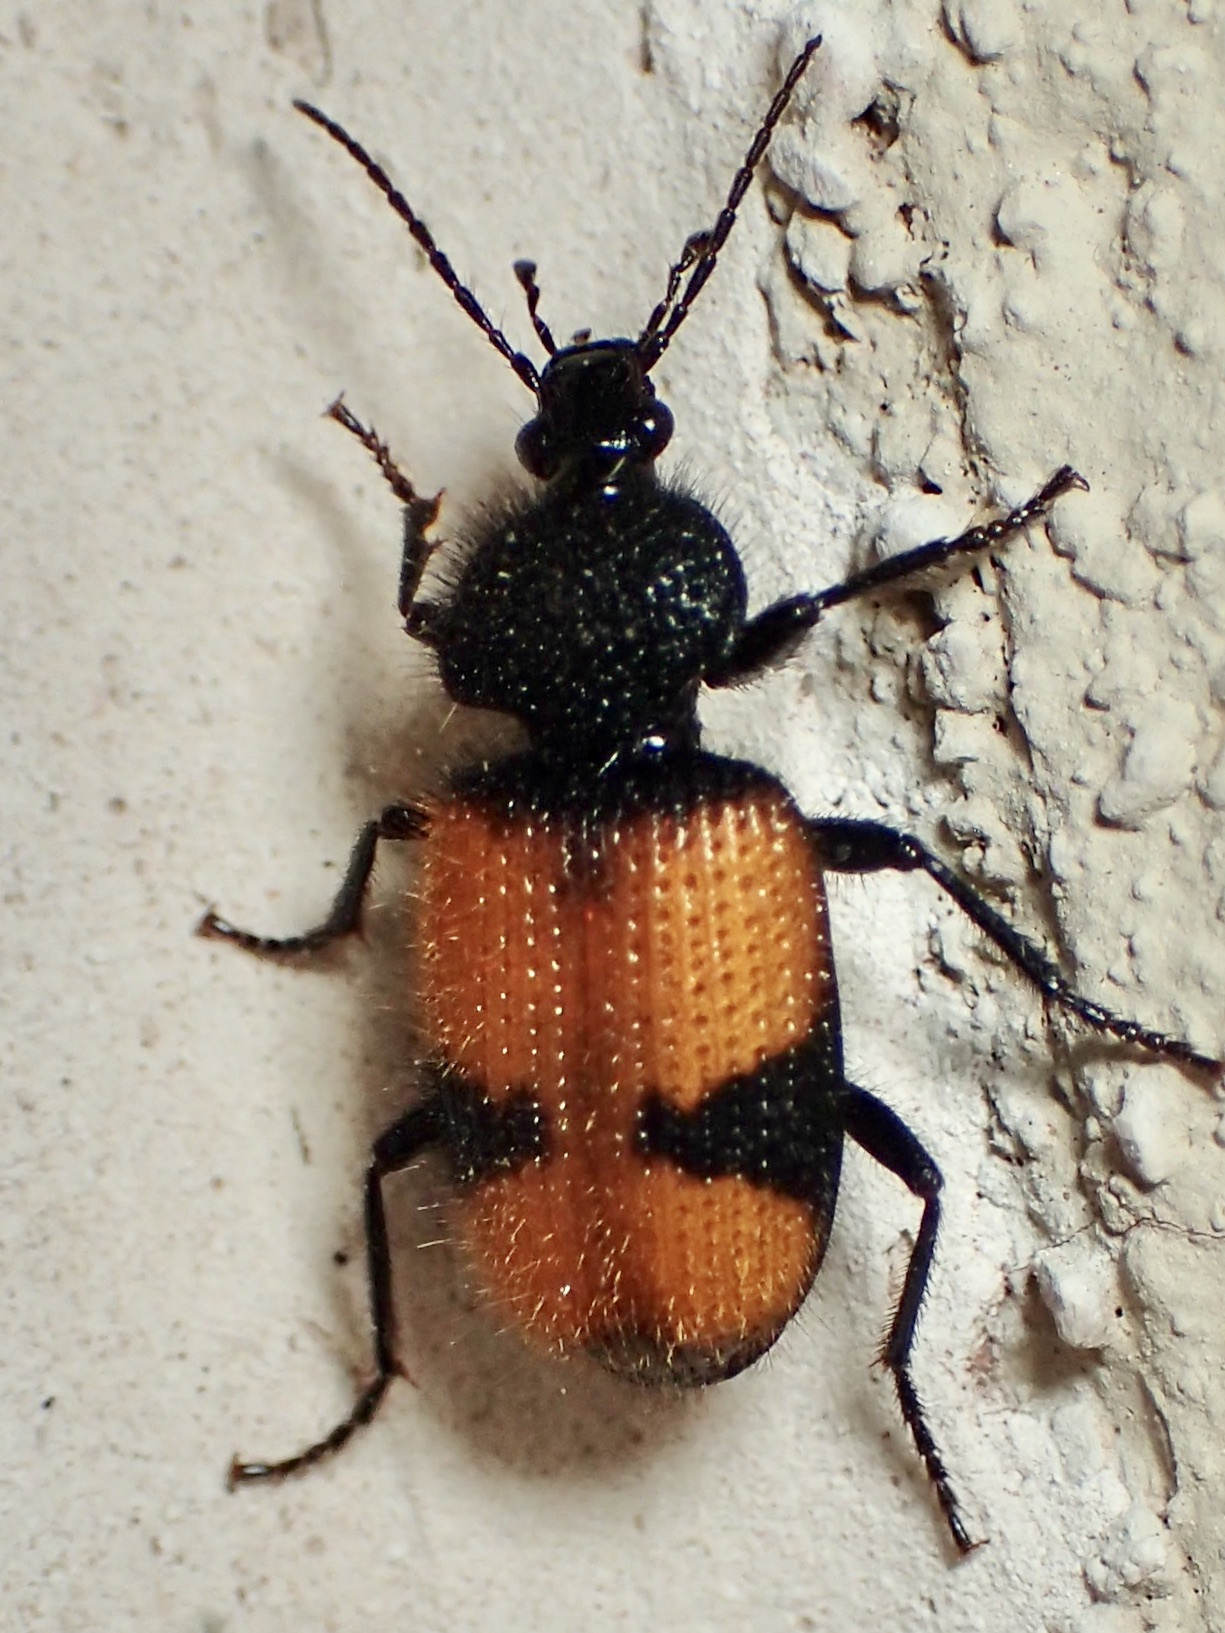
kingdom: Animalia
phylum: Arthropoda
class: Insecta
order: Coleoptera
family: Carabidae
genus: Panagaeus
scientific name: Panagaeus sallei
